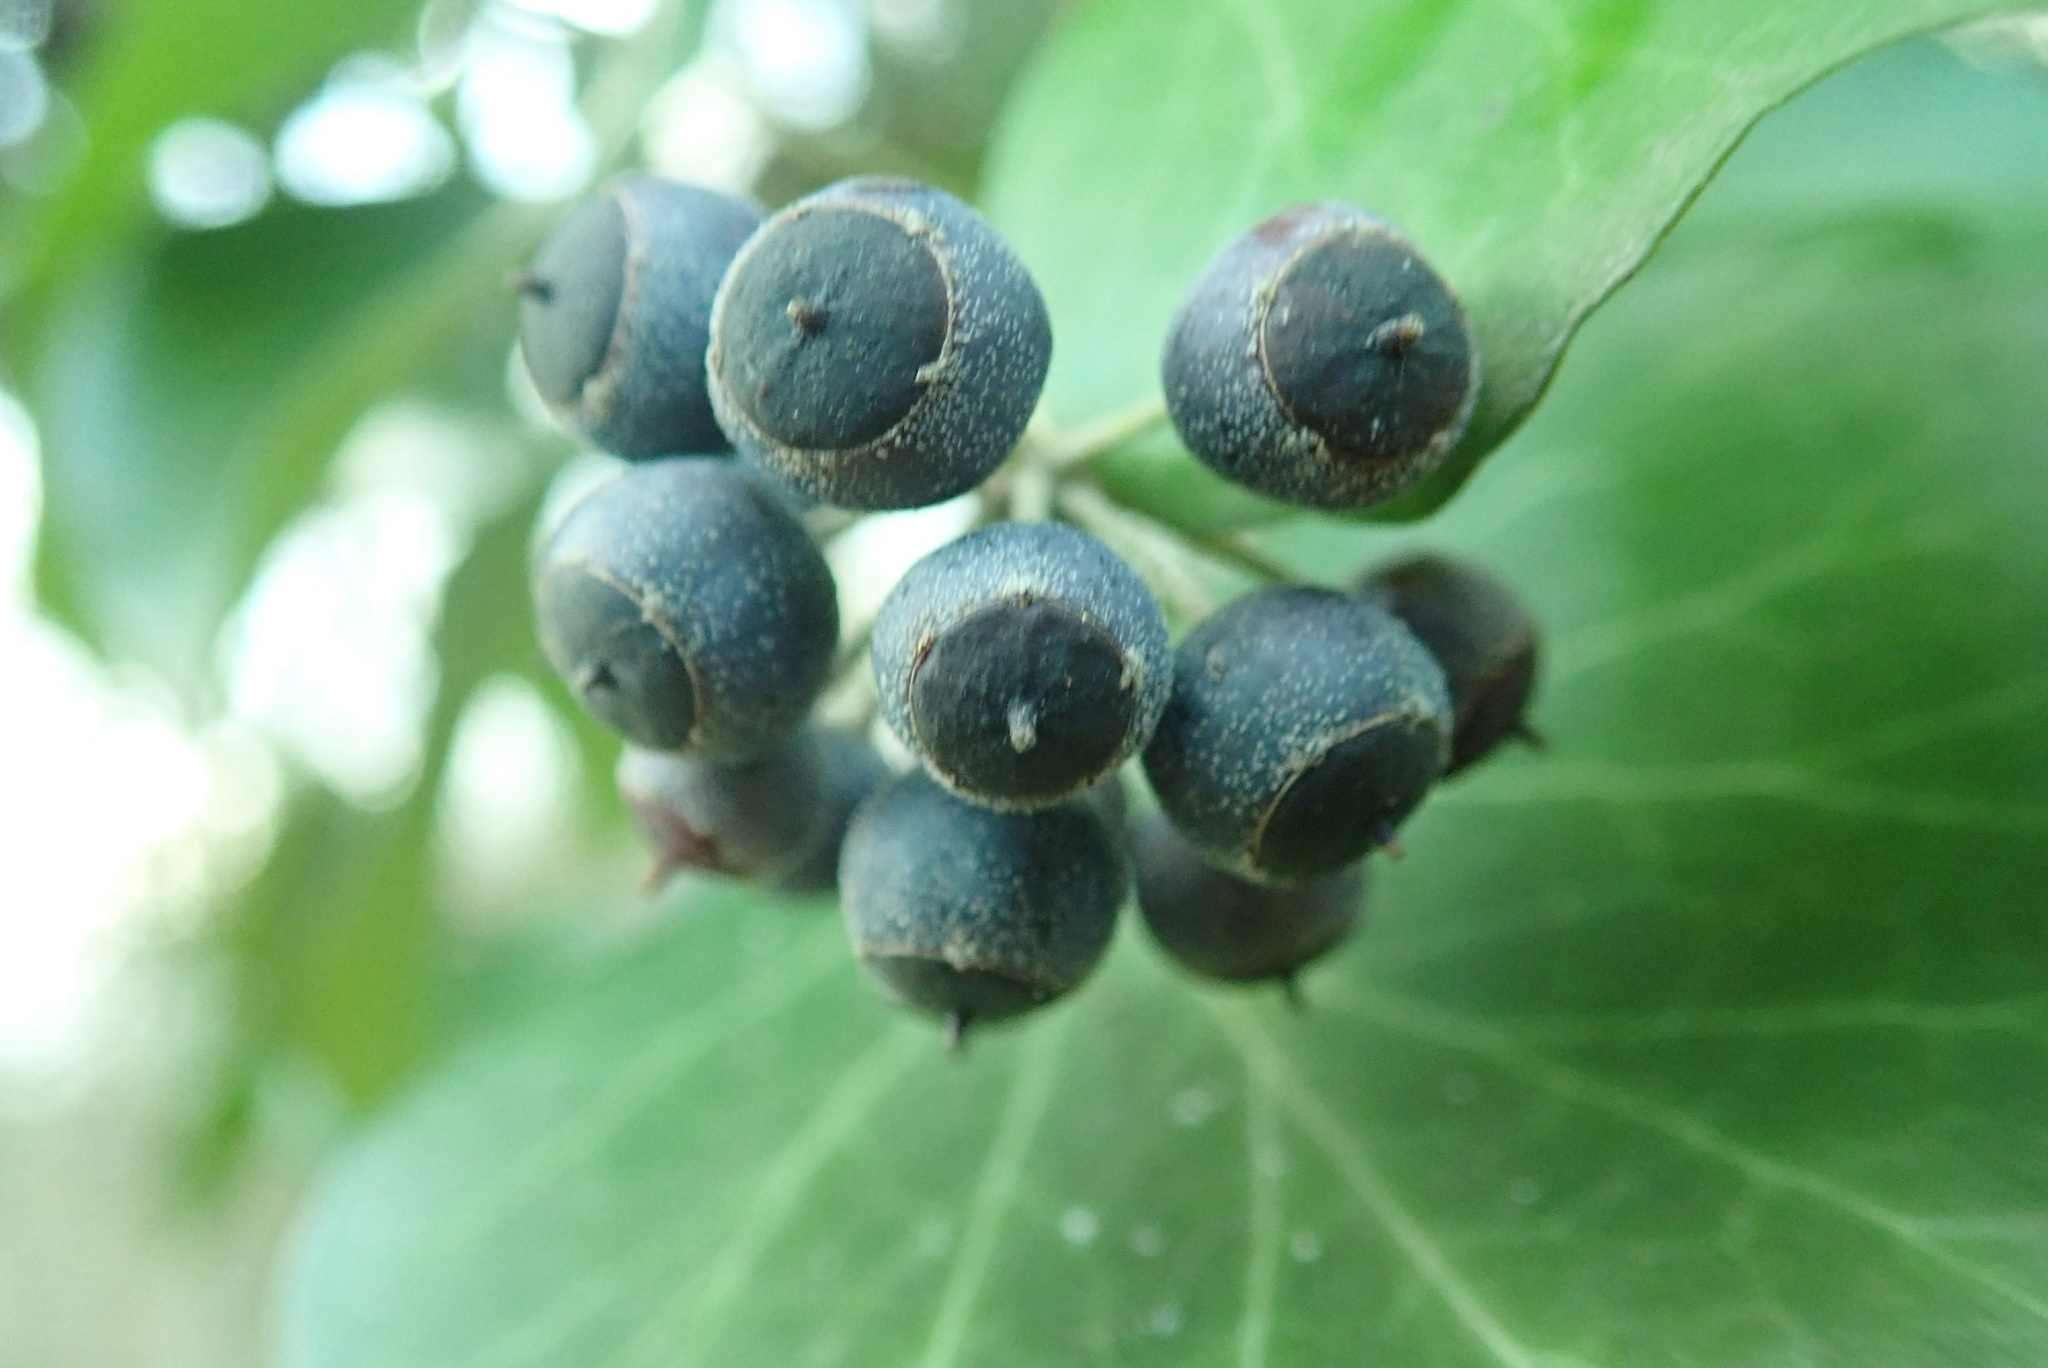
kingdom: Plantae
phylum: Tracheophyta
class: Magnoliopsida
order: Apiales
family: Araliaceae
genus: Hedera
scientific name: Hedera helix
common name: Ivy
